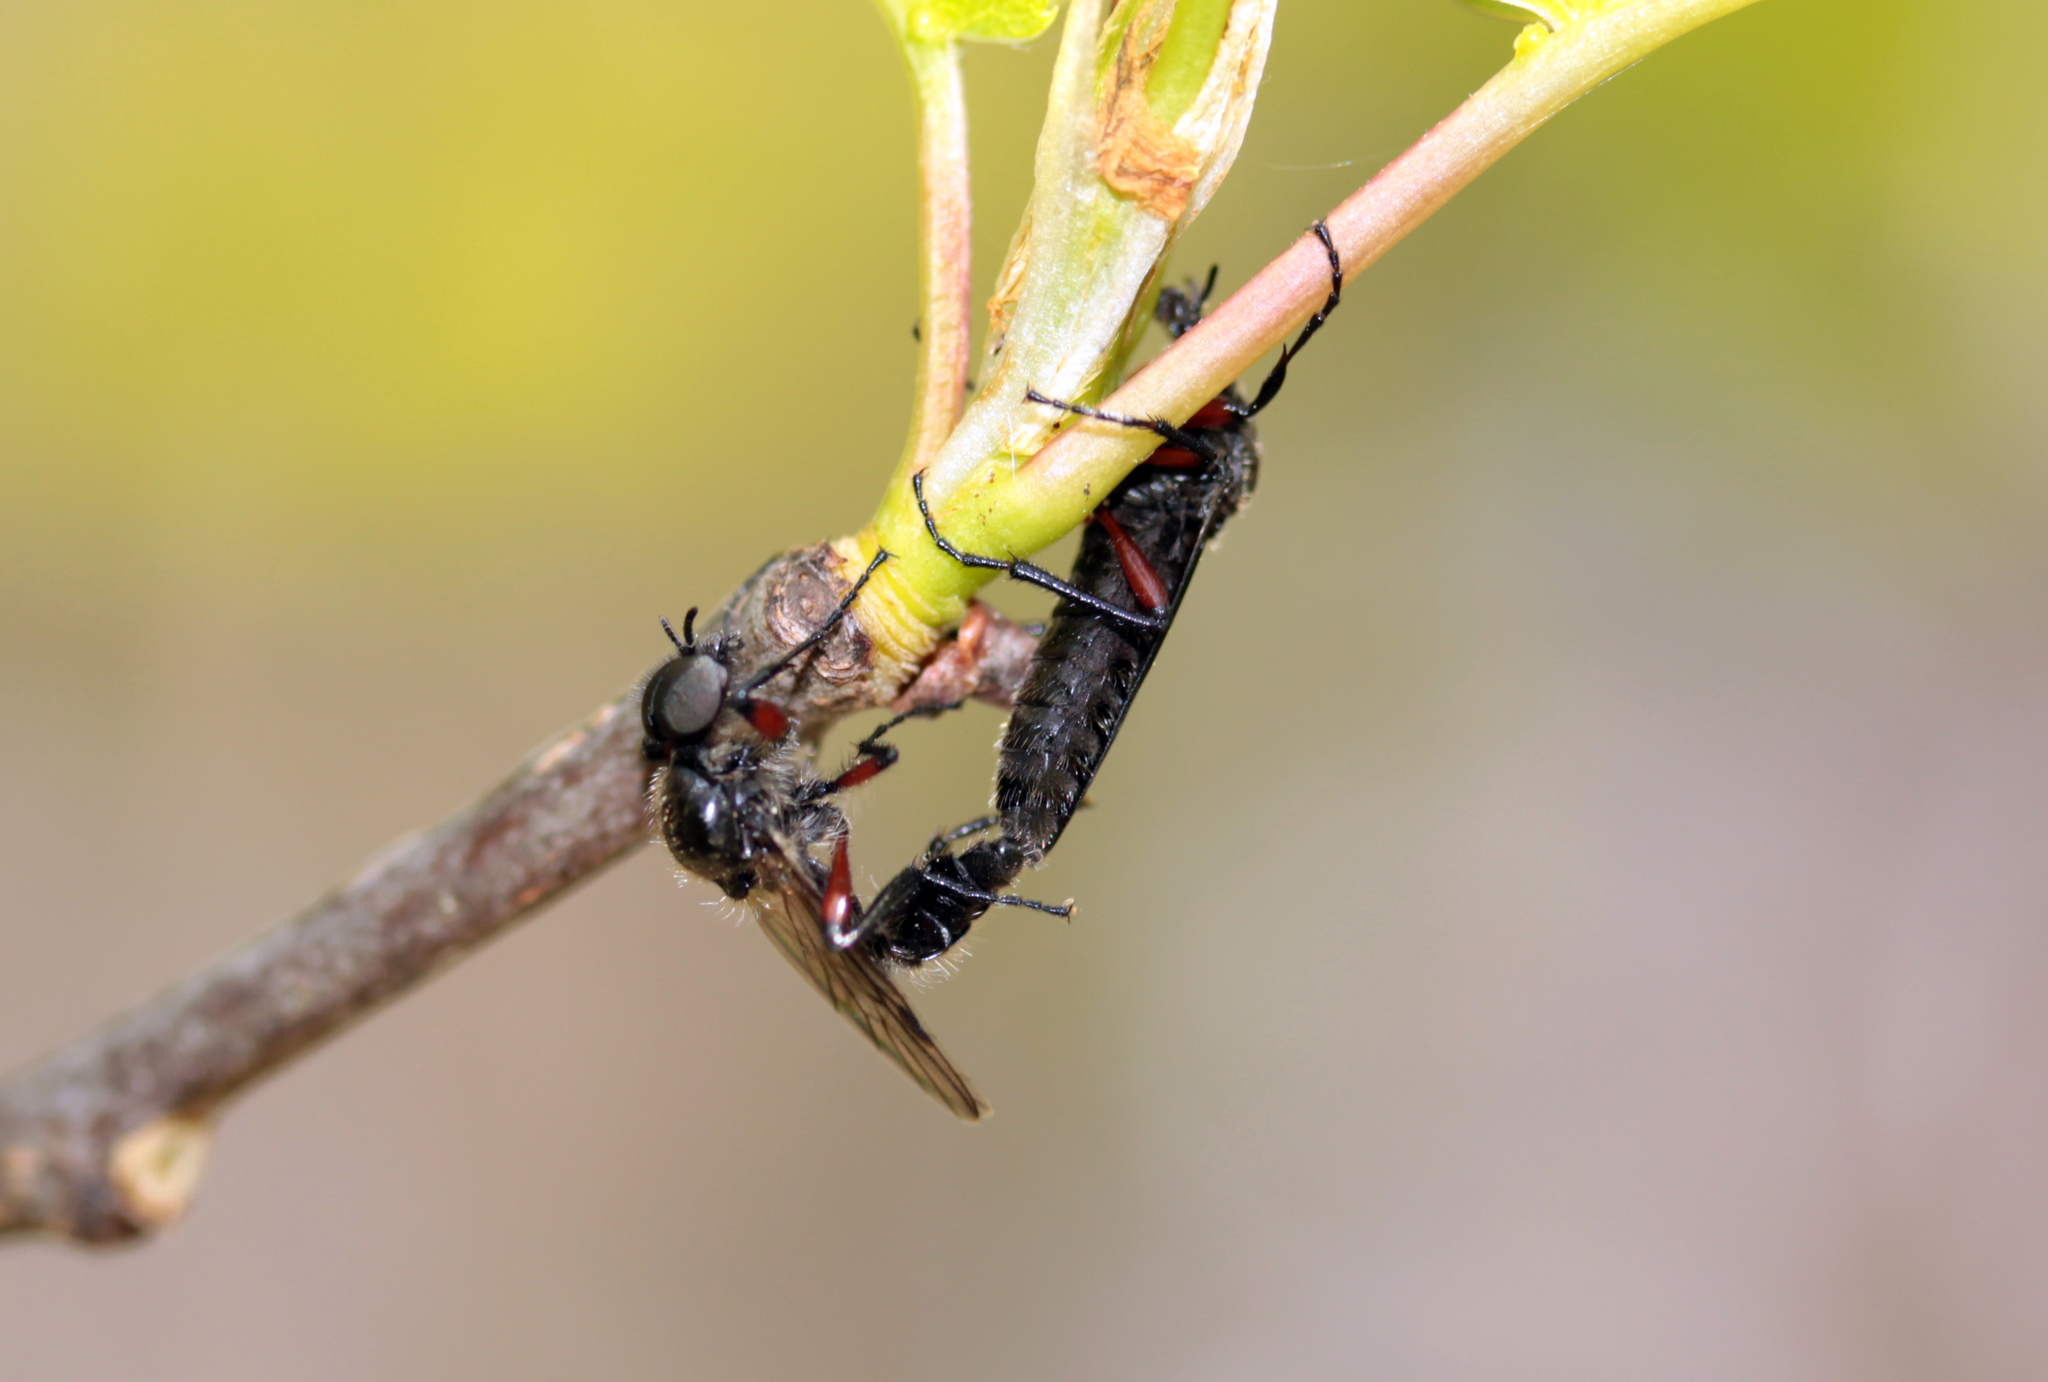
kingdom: Animalia
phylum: Arthropoda
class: Insecta
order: Diptera
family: Bibionidae
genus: Bibio
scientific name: Bibio femoratus
